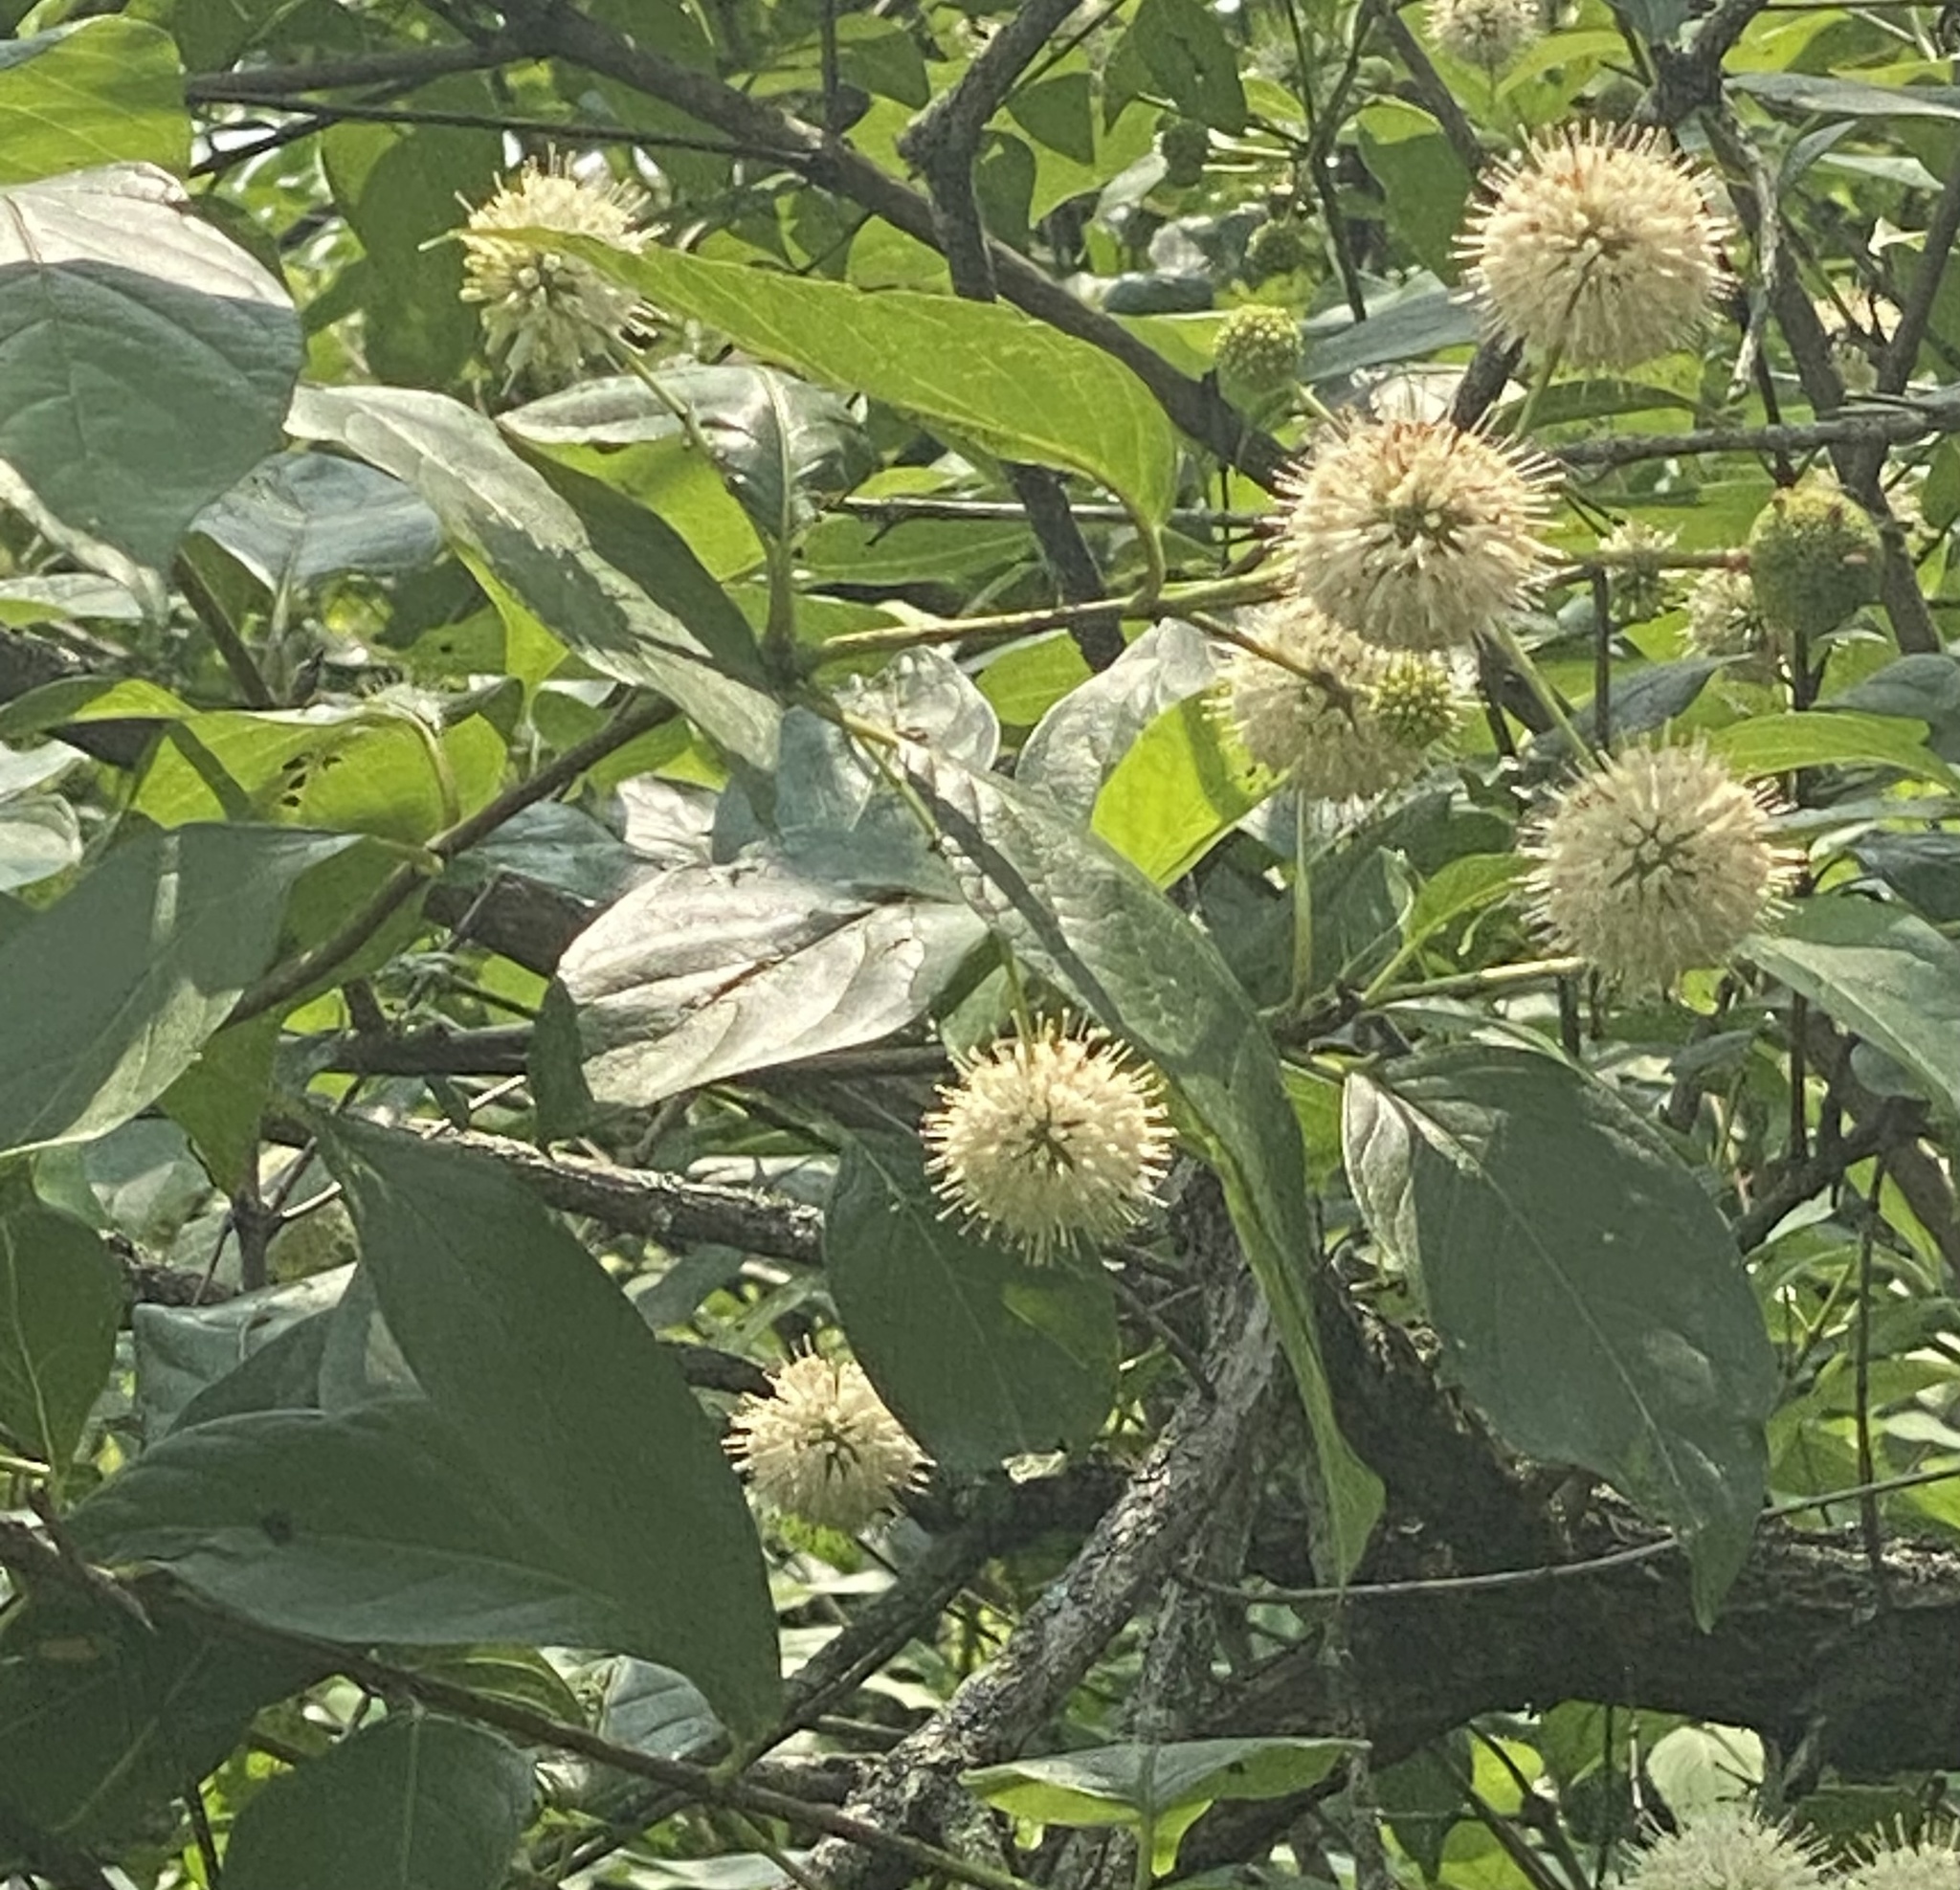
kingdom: Plantae
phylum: Tracheophyta
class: Magnoliopsida
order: Gentianales
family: Rubiaceae
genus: Cephalanthus
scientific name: Cephalanthus occidentalis
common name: Button-willow
